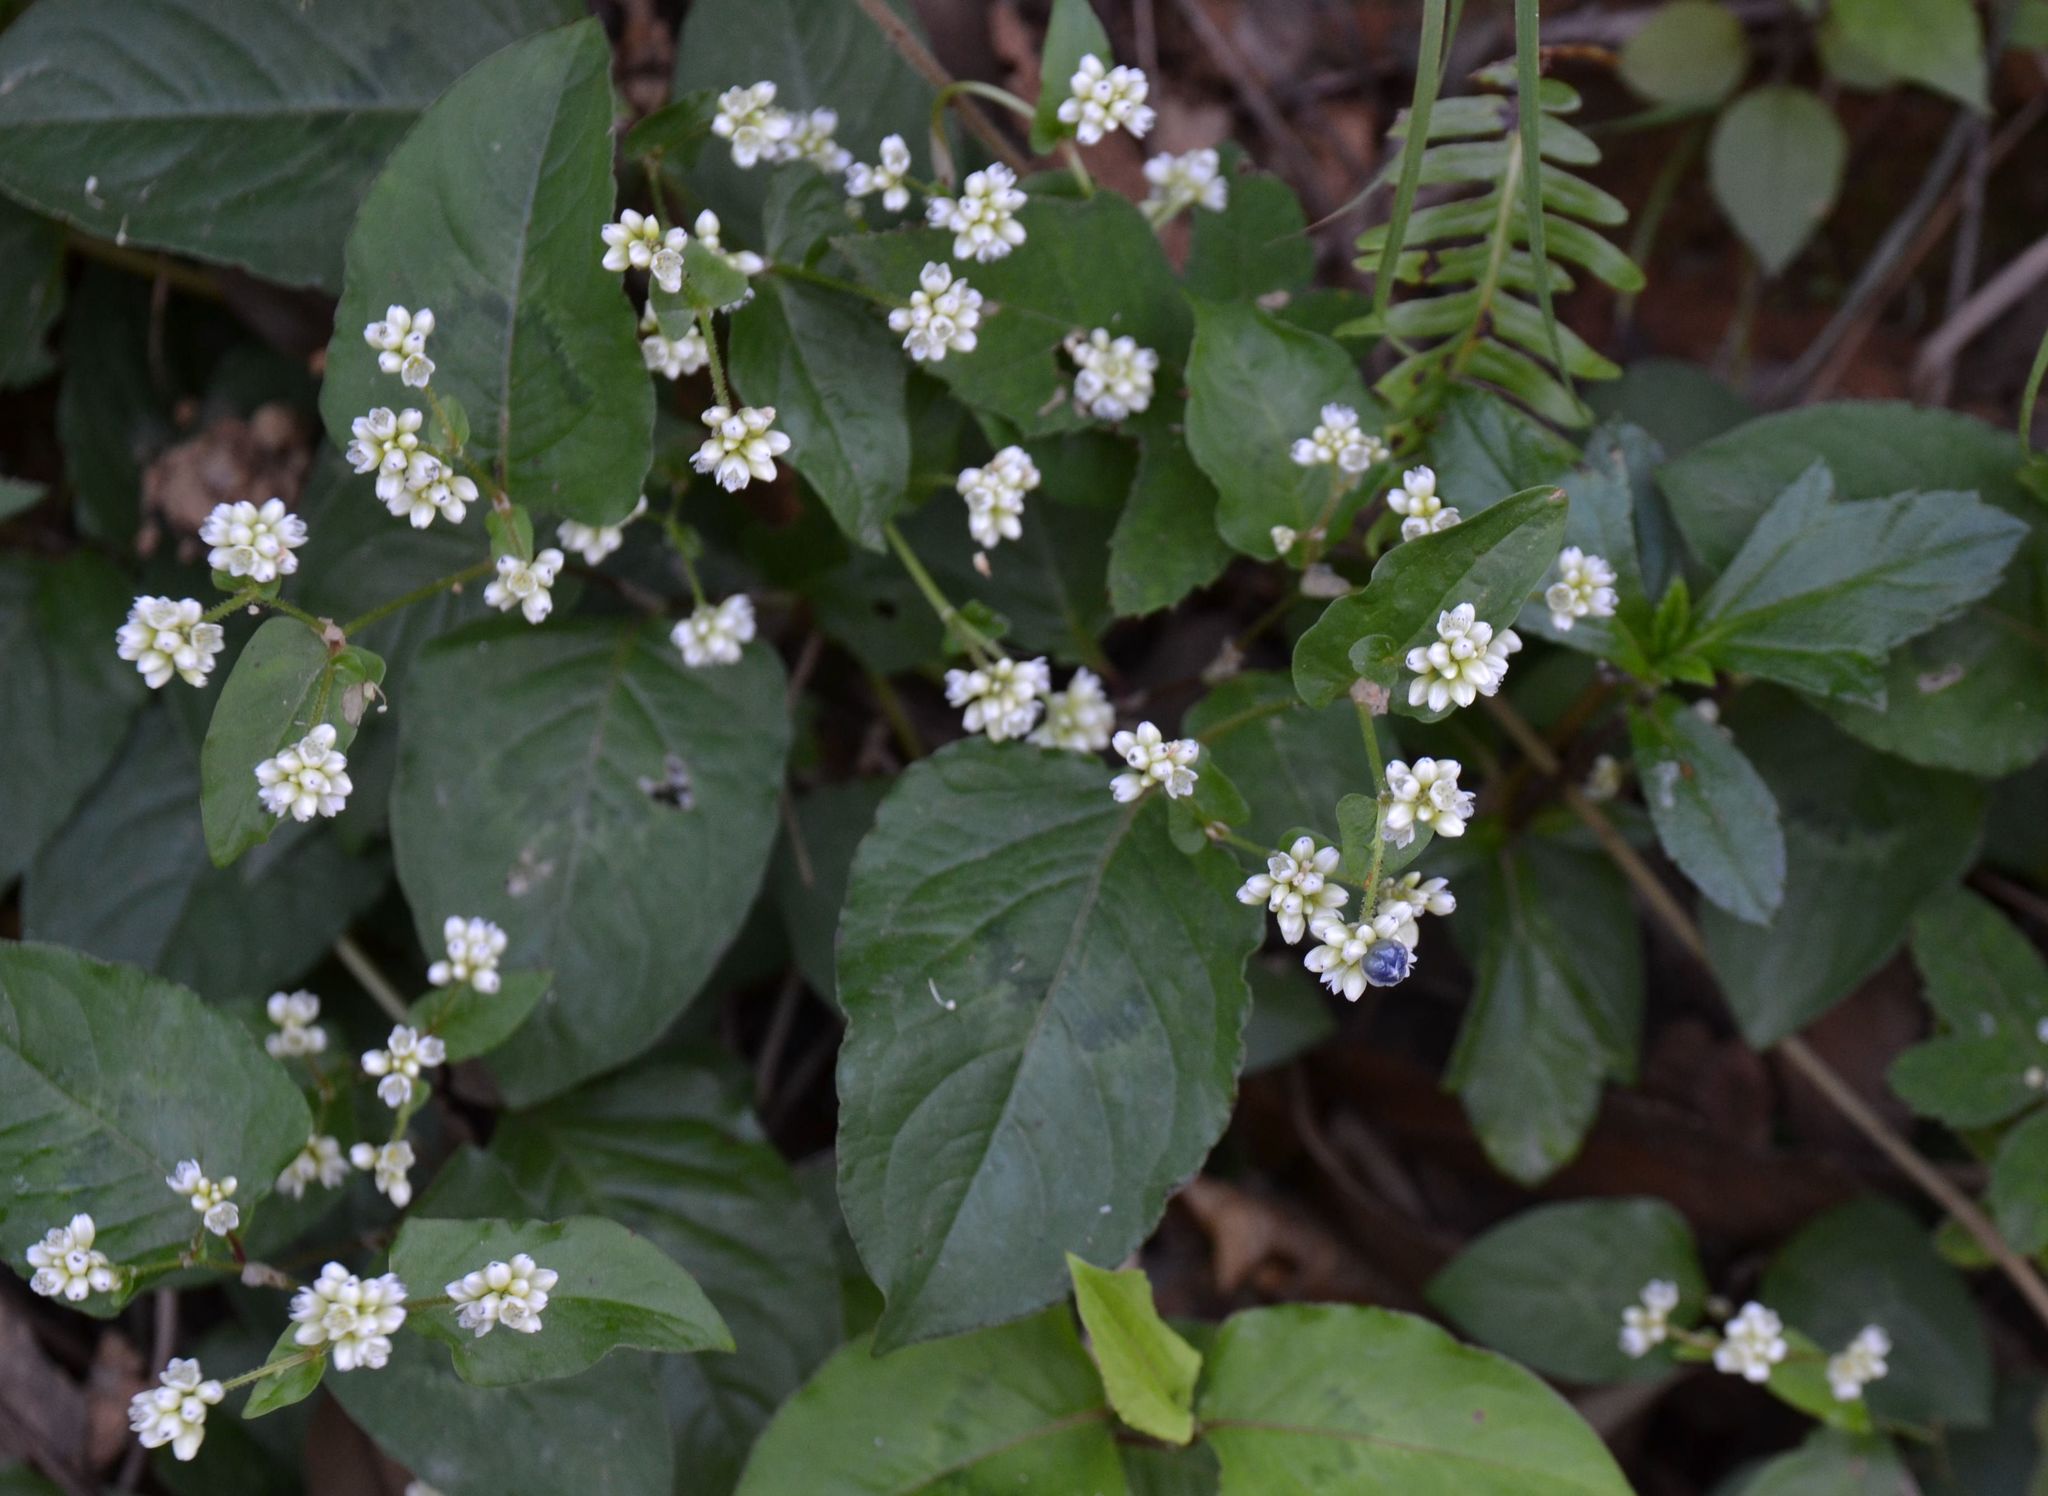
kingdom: Plantae
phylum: Tracheophyta
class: Magnoliopsida
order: Caryophyllales
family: Polygonaceae
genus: Persicaria
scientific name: Persicaria chinensis
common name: Chinese knotweed
